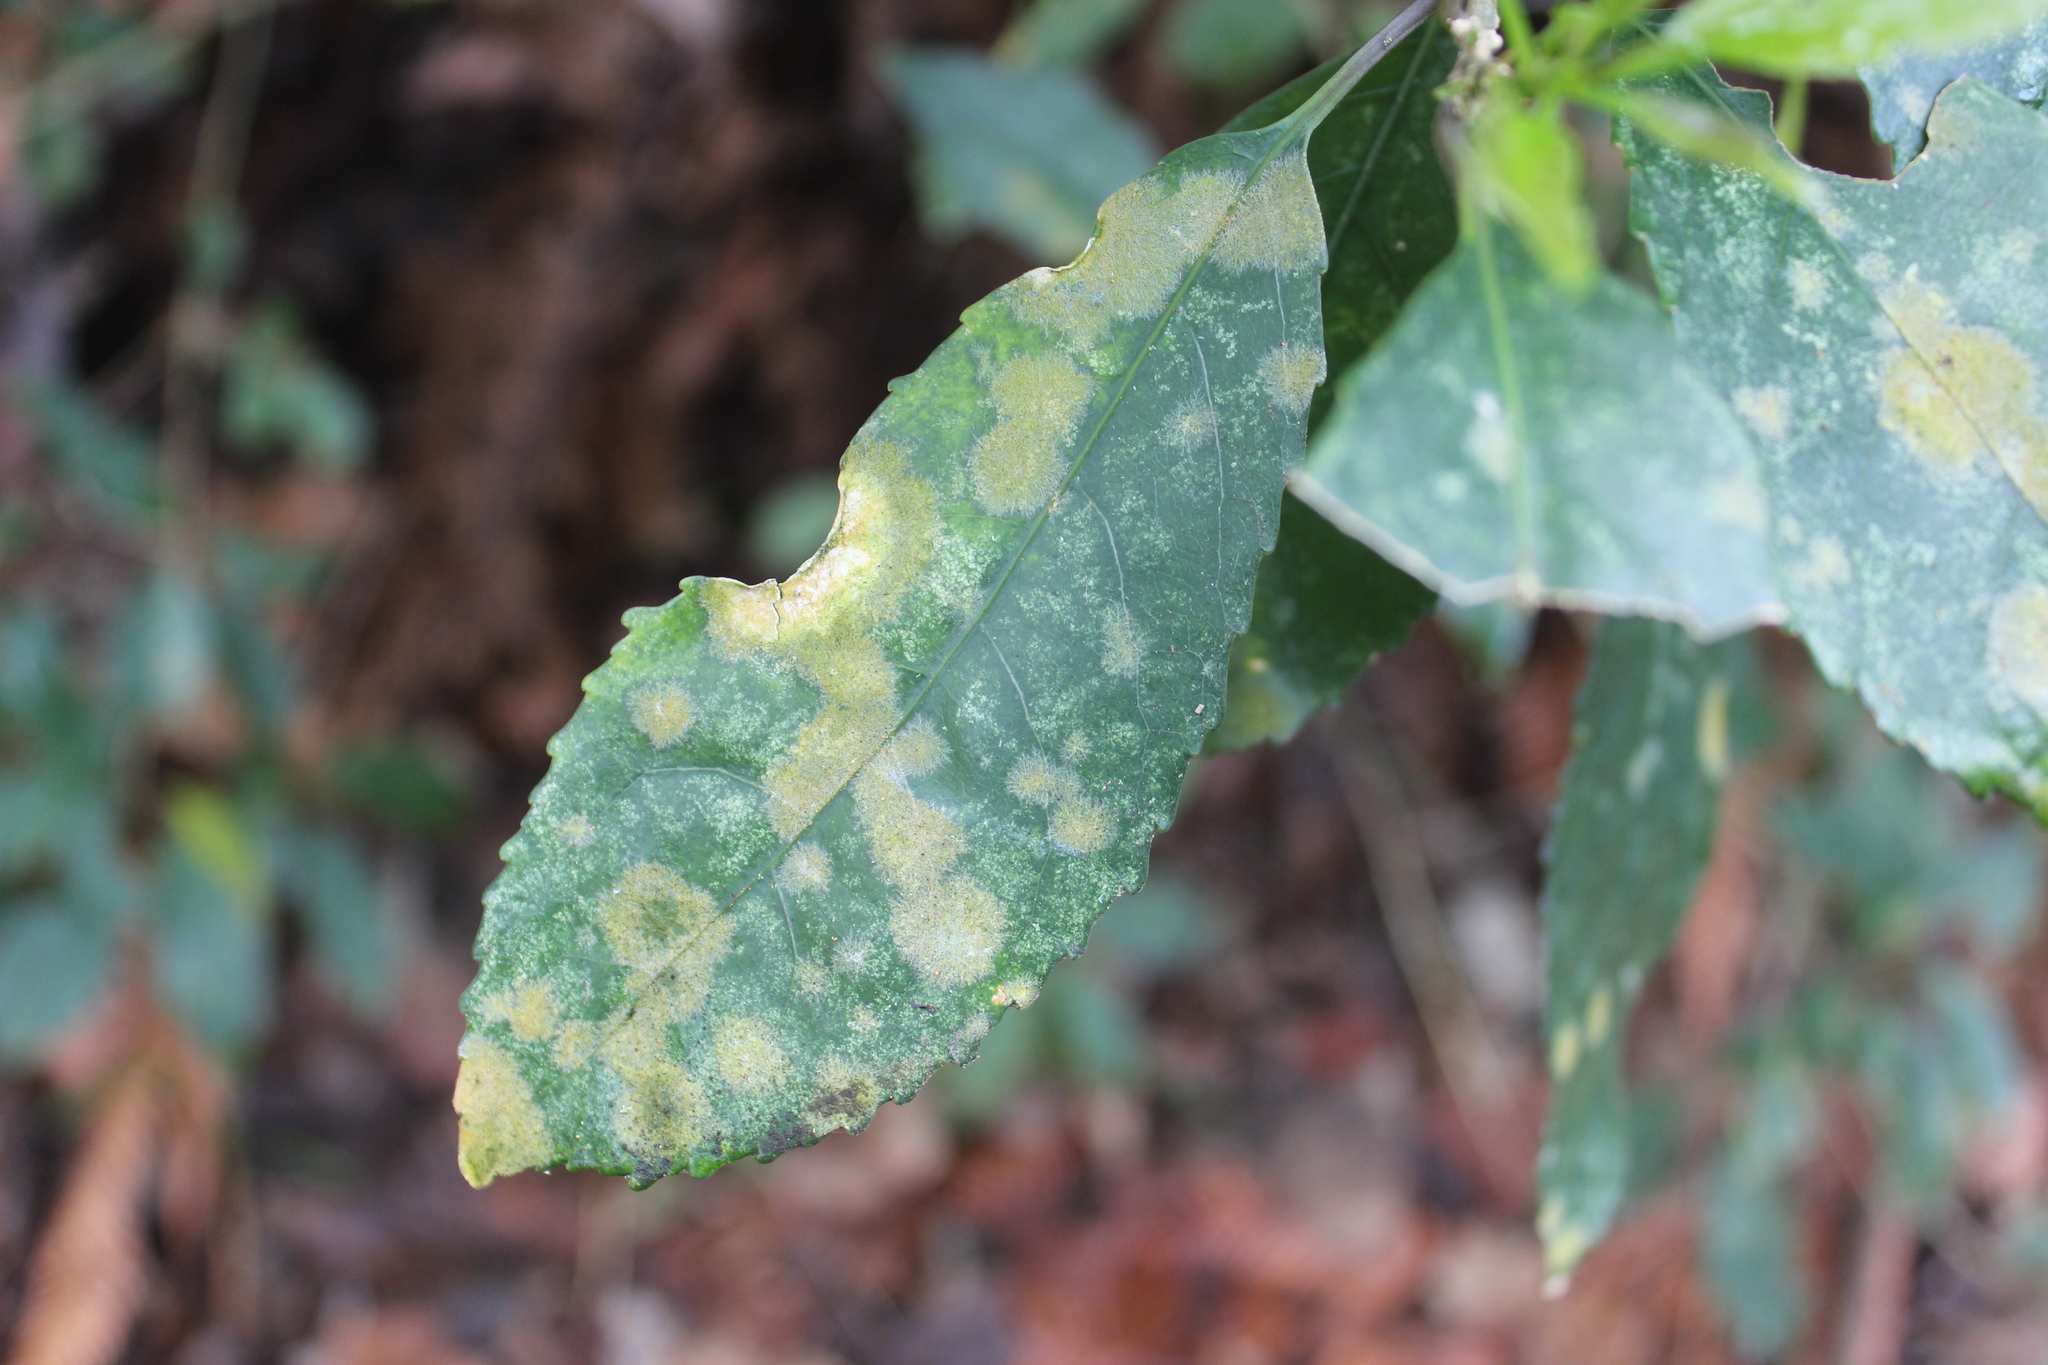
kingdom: Plantae
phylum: Tracheophyta
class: Magnoliopsida
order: Malpighiales
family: Violaceae
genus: Melicytus
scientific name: Melicytus ramiflorus
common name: Mahoe
